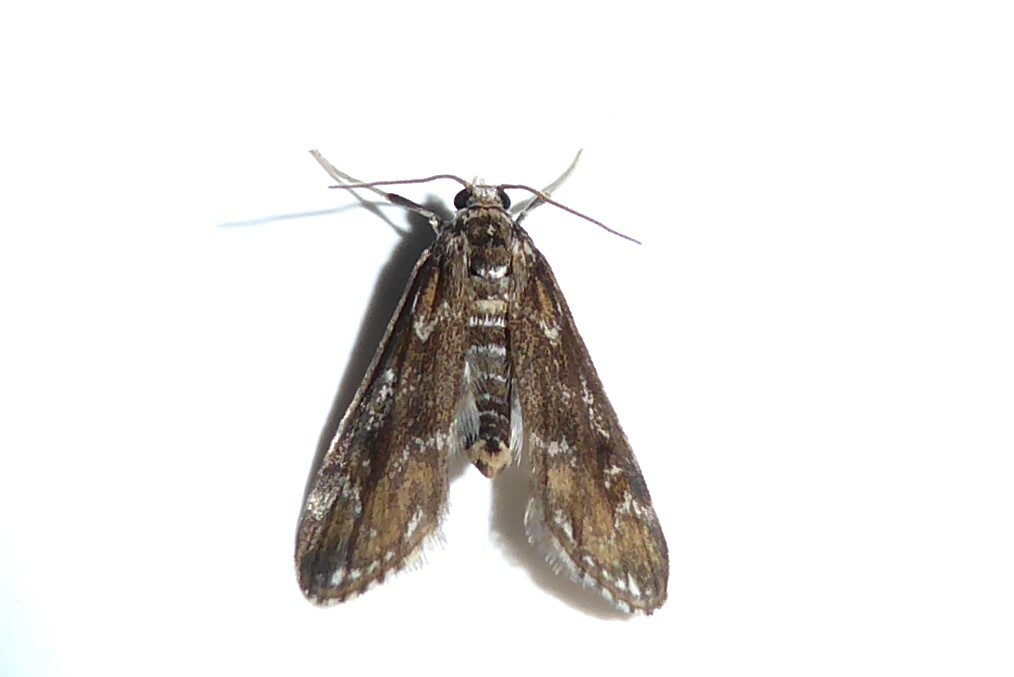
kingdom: Animalia
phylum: Arthropoda
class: Insecta
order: Lepidoptera
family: Crambidae
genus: Hygraula
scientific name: Hygraula nitens
